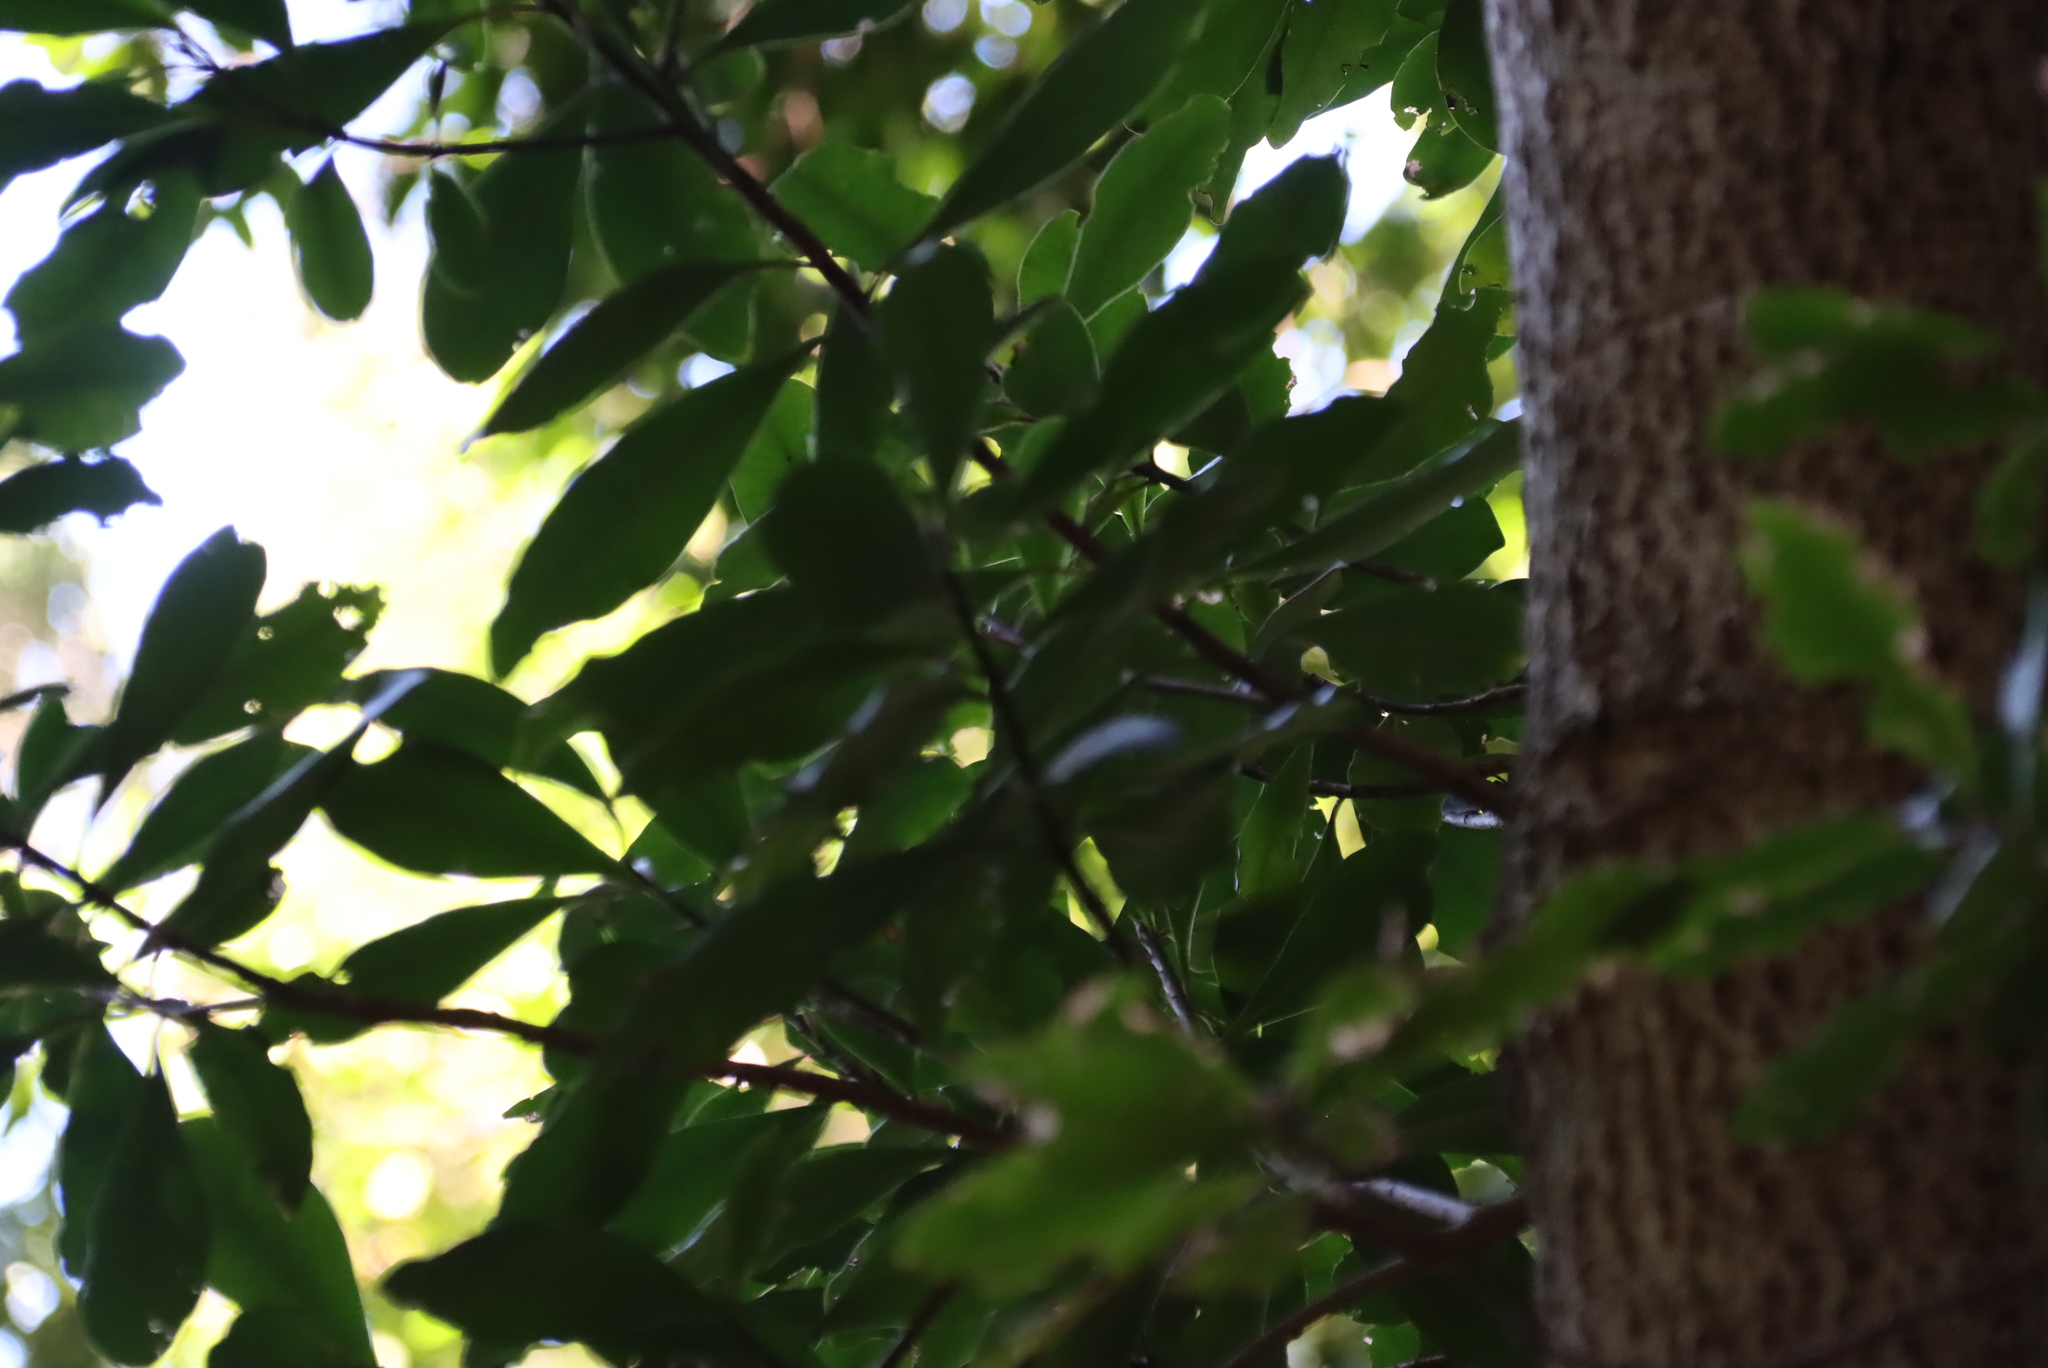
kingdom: Plantae
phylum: Tracheophyta
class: Magnoliopsida
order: Ericales
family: Primulaceae
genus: Myrsine
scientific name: Myrsine melanophloeos
